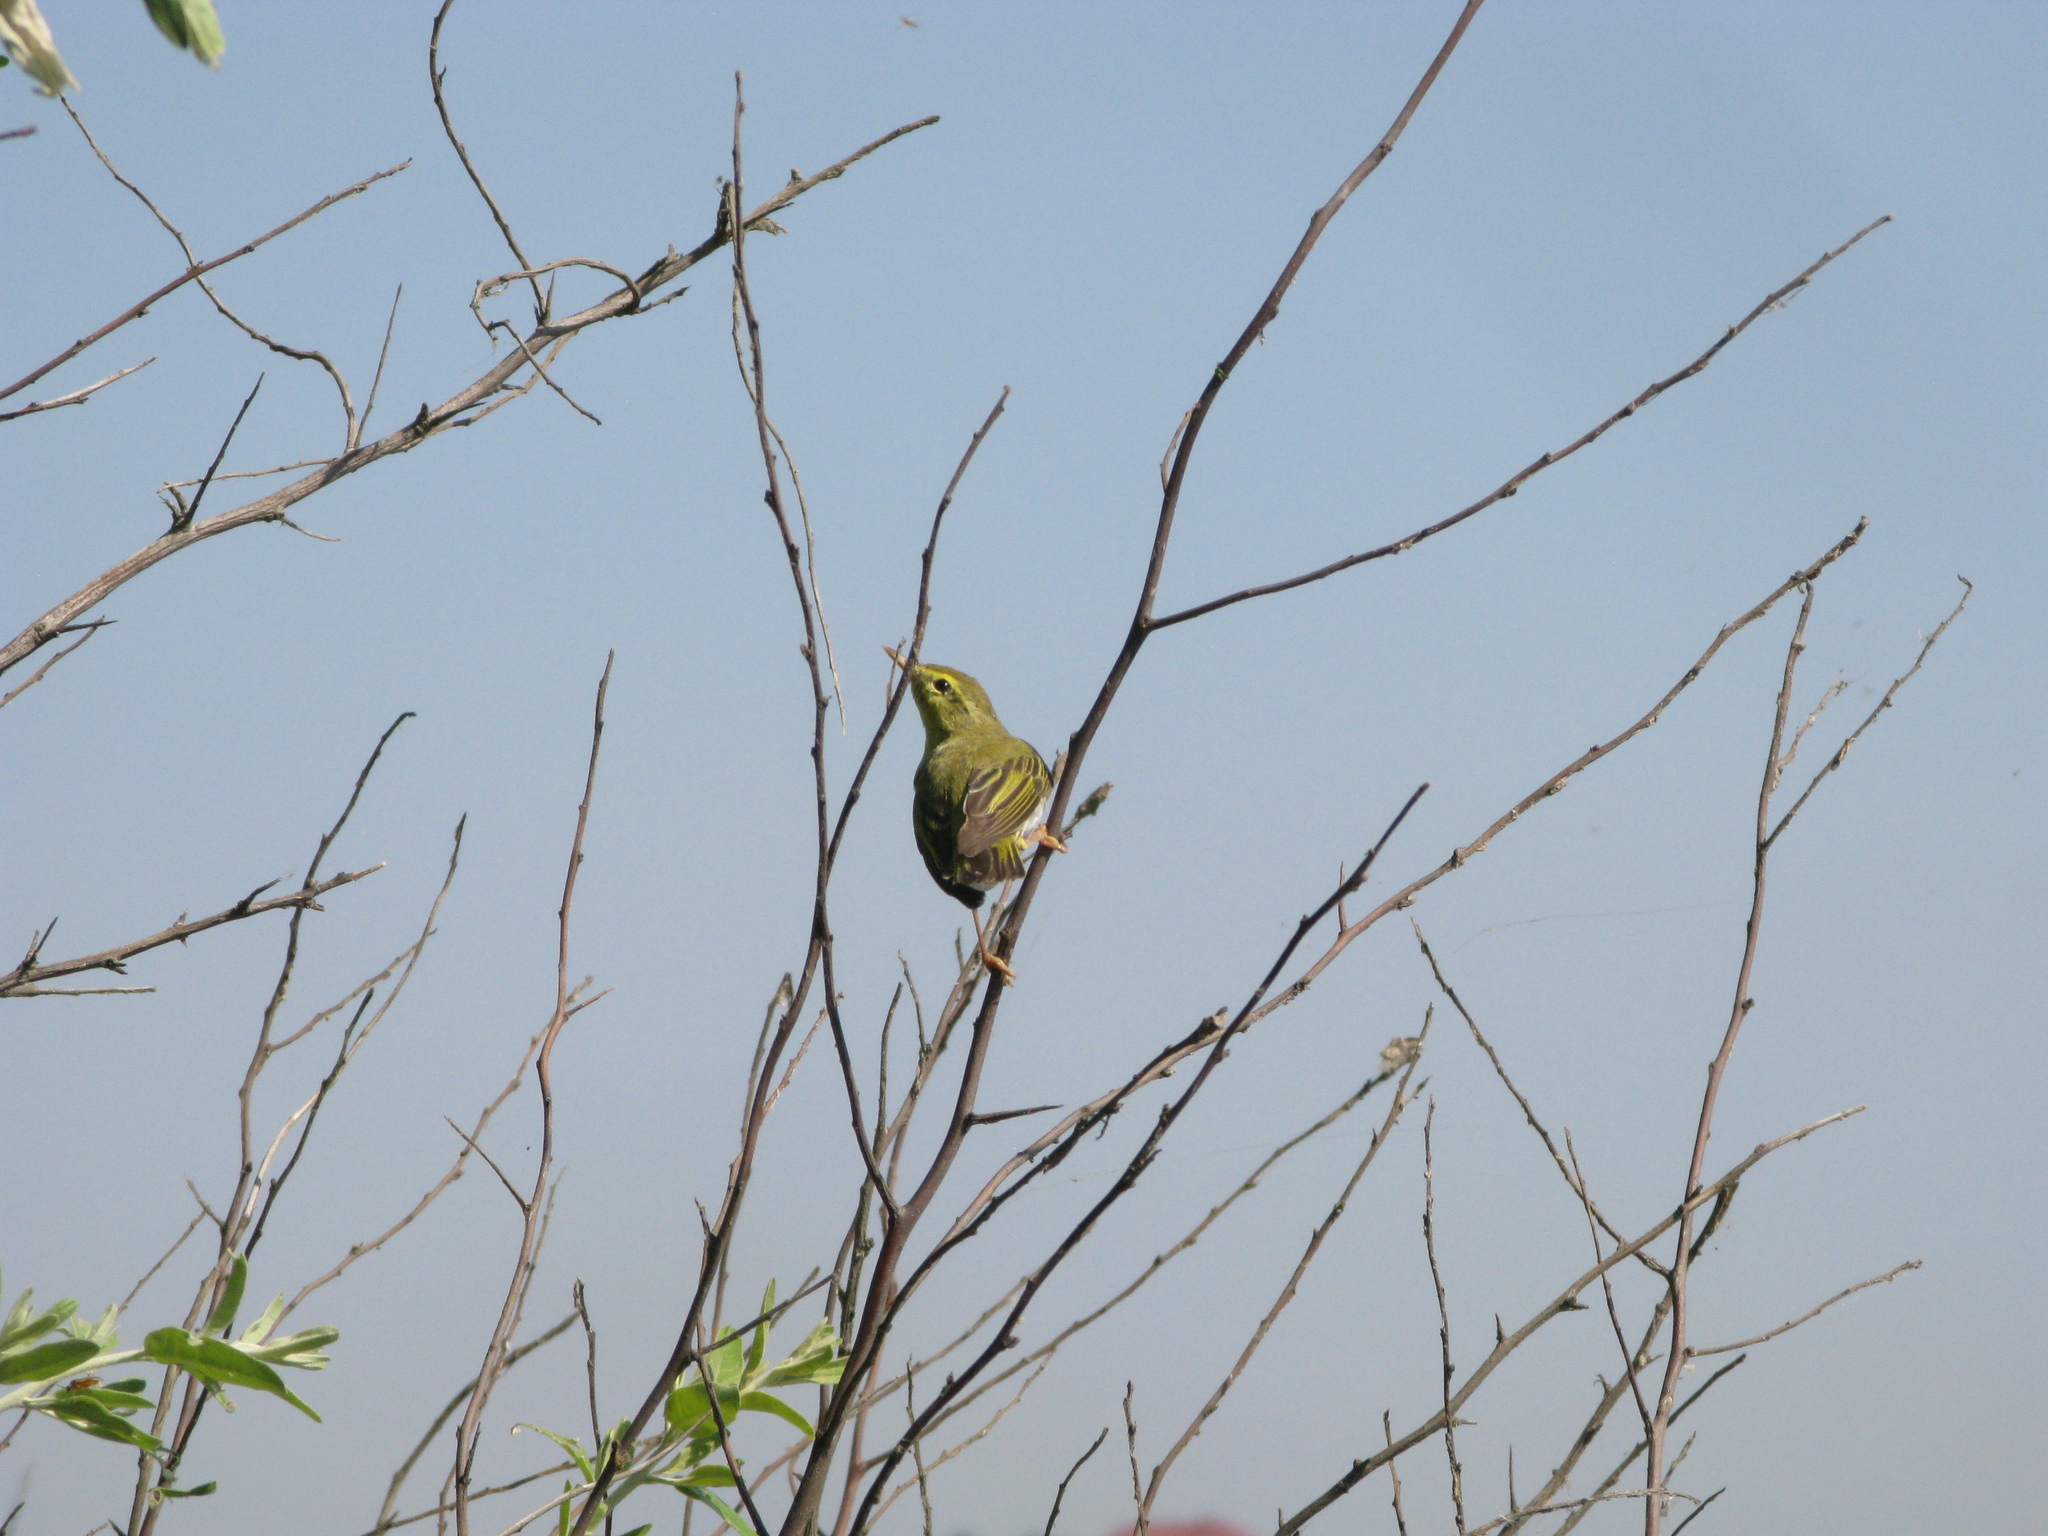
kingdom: Animalia
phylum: Chordata
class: Aves
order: Passeriformes
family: Phylloscopidae
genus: Phylloscopus
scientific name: Phylloscopus sibillatrix
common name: Wood warbler
